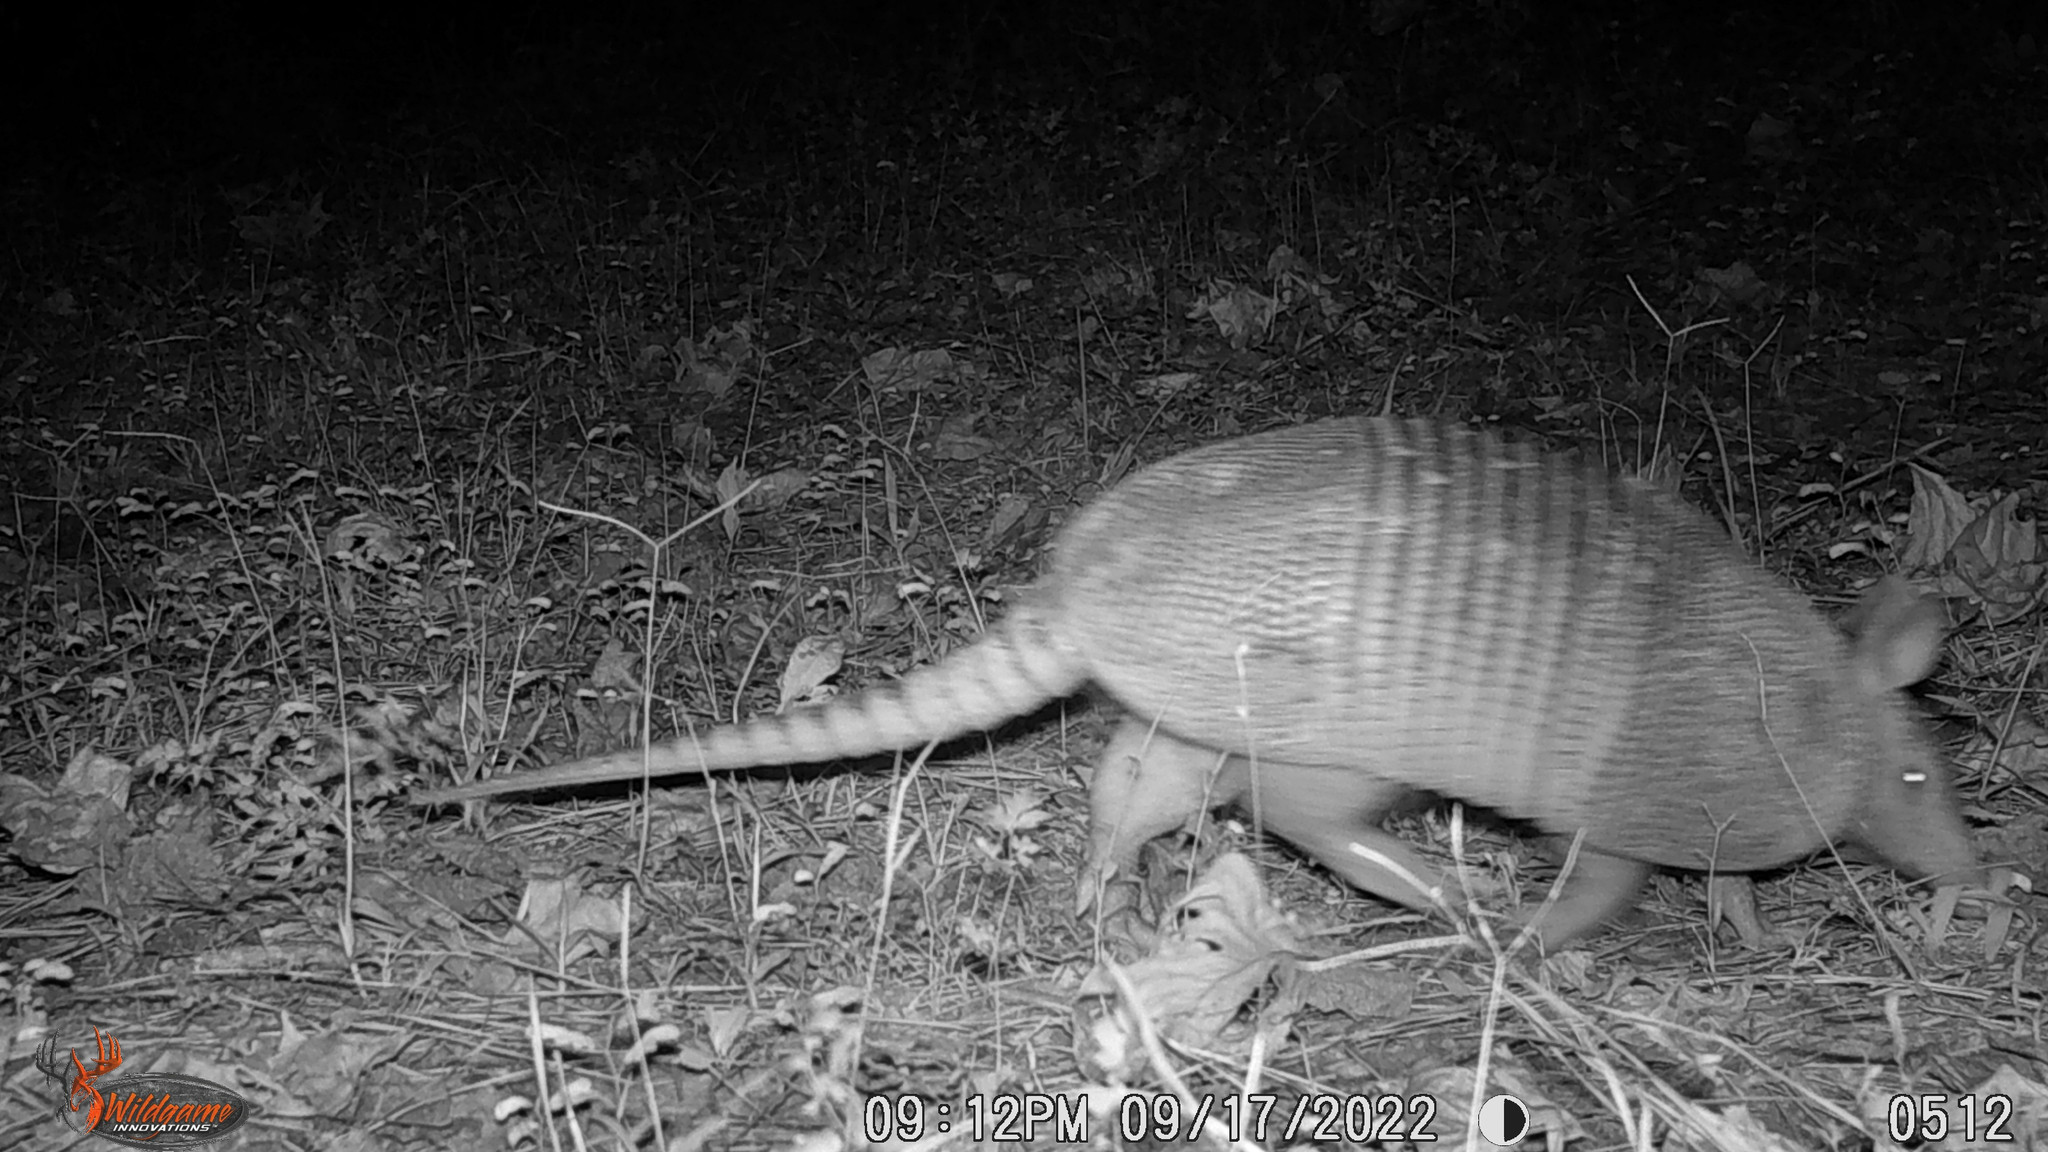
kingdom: Animalia
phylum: Chordata
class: Mammalia
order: Cingulata
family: Dasypodidae
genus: Dasypus
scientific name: Dasypus novemcinctus
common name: Nine-banded armadillo
